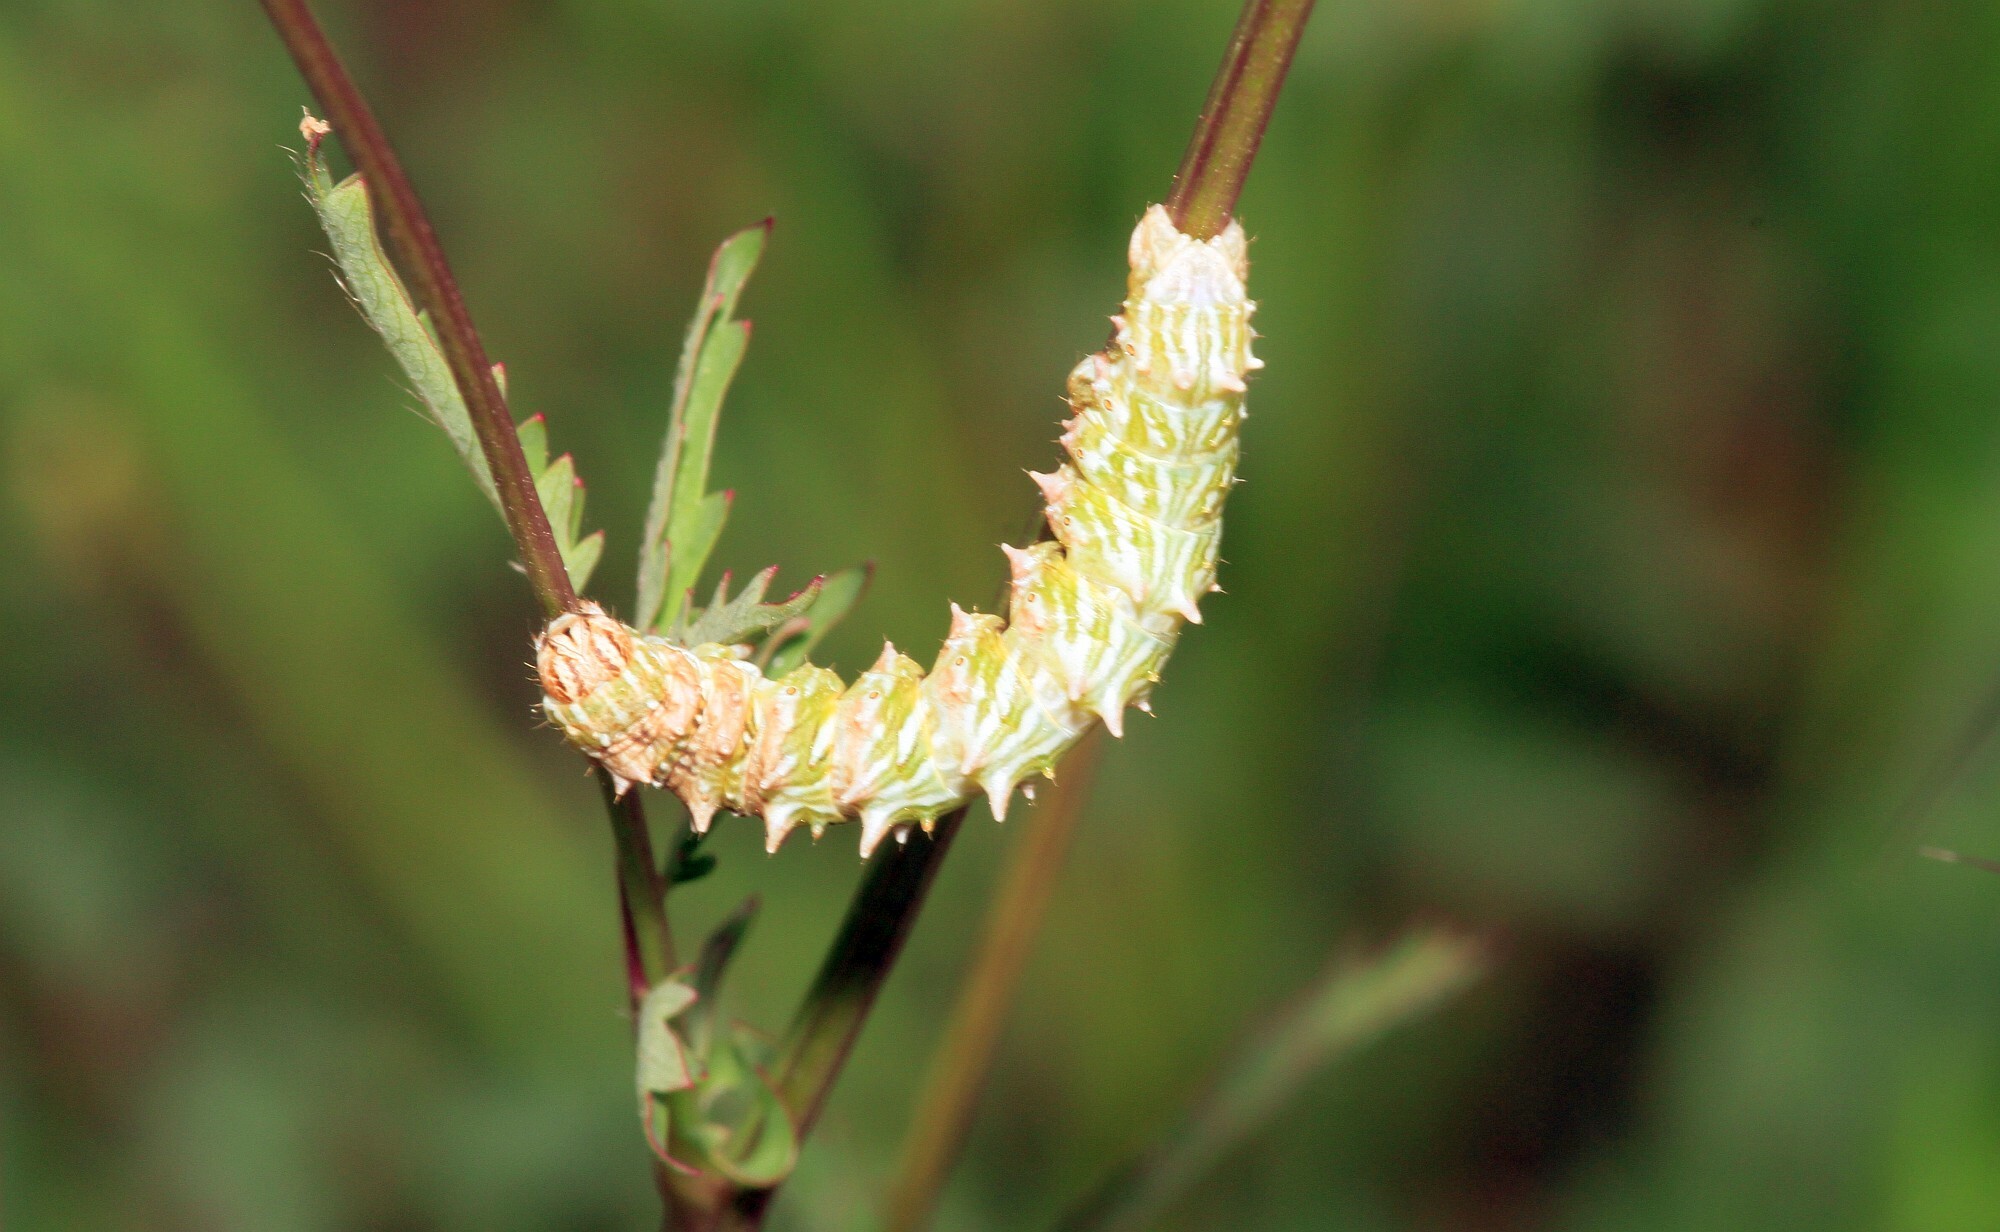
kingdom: Animalia
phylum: Arthropoda
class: Insecta
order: Lepidoptera
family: Geometridae
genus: Apochima
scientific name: Apochima flabellaria
